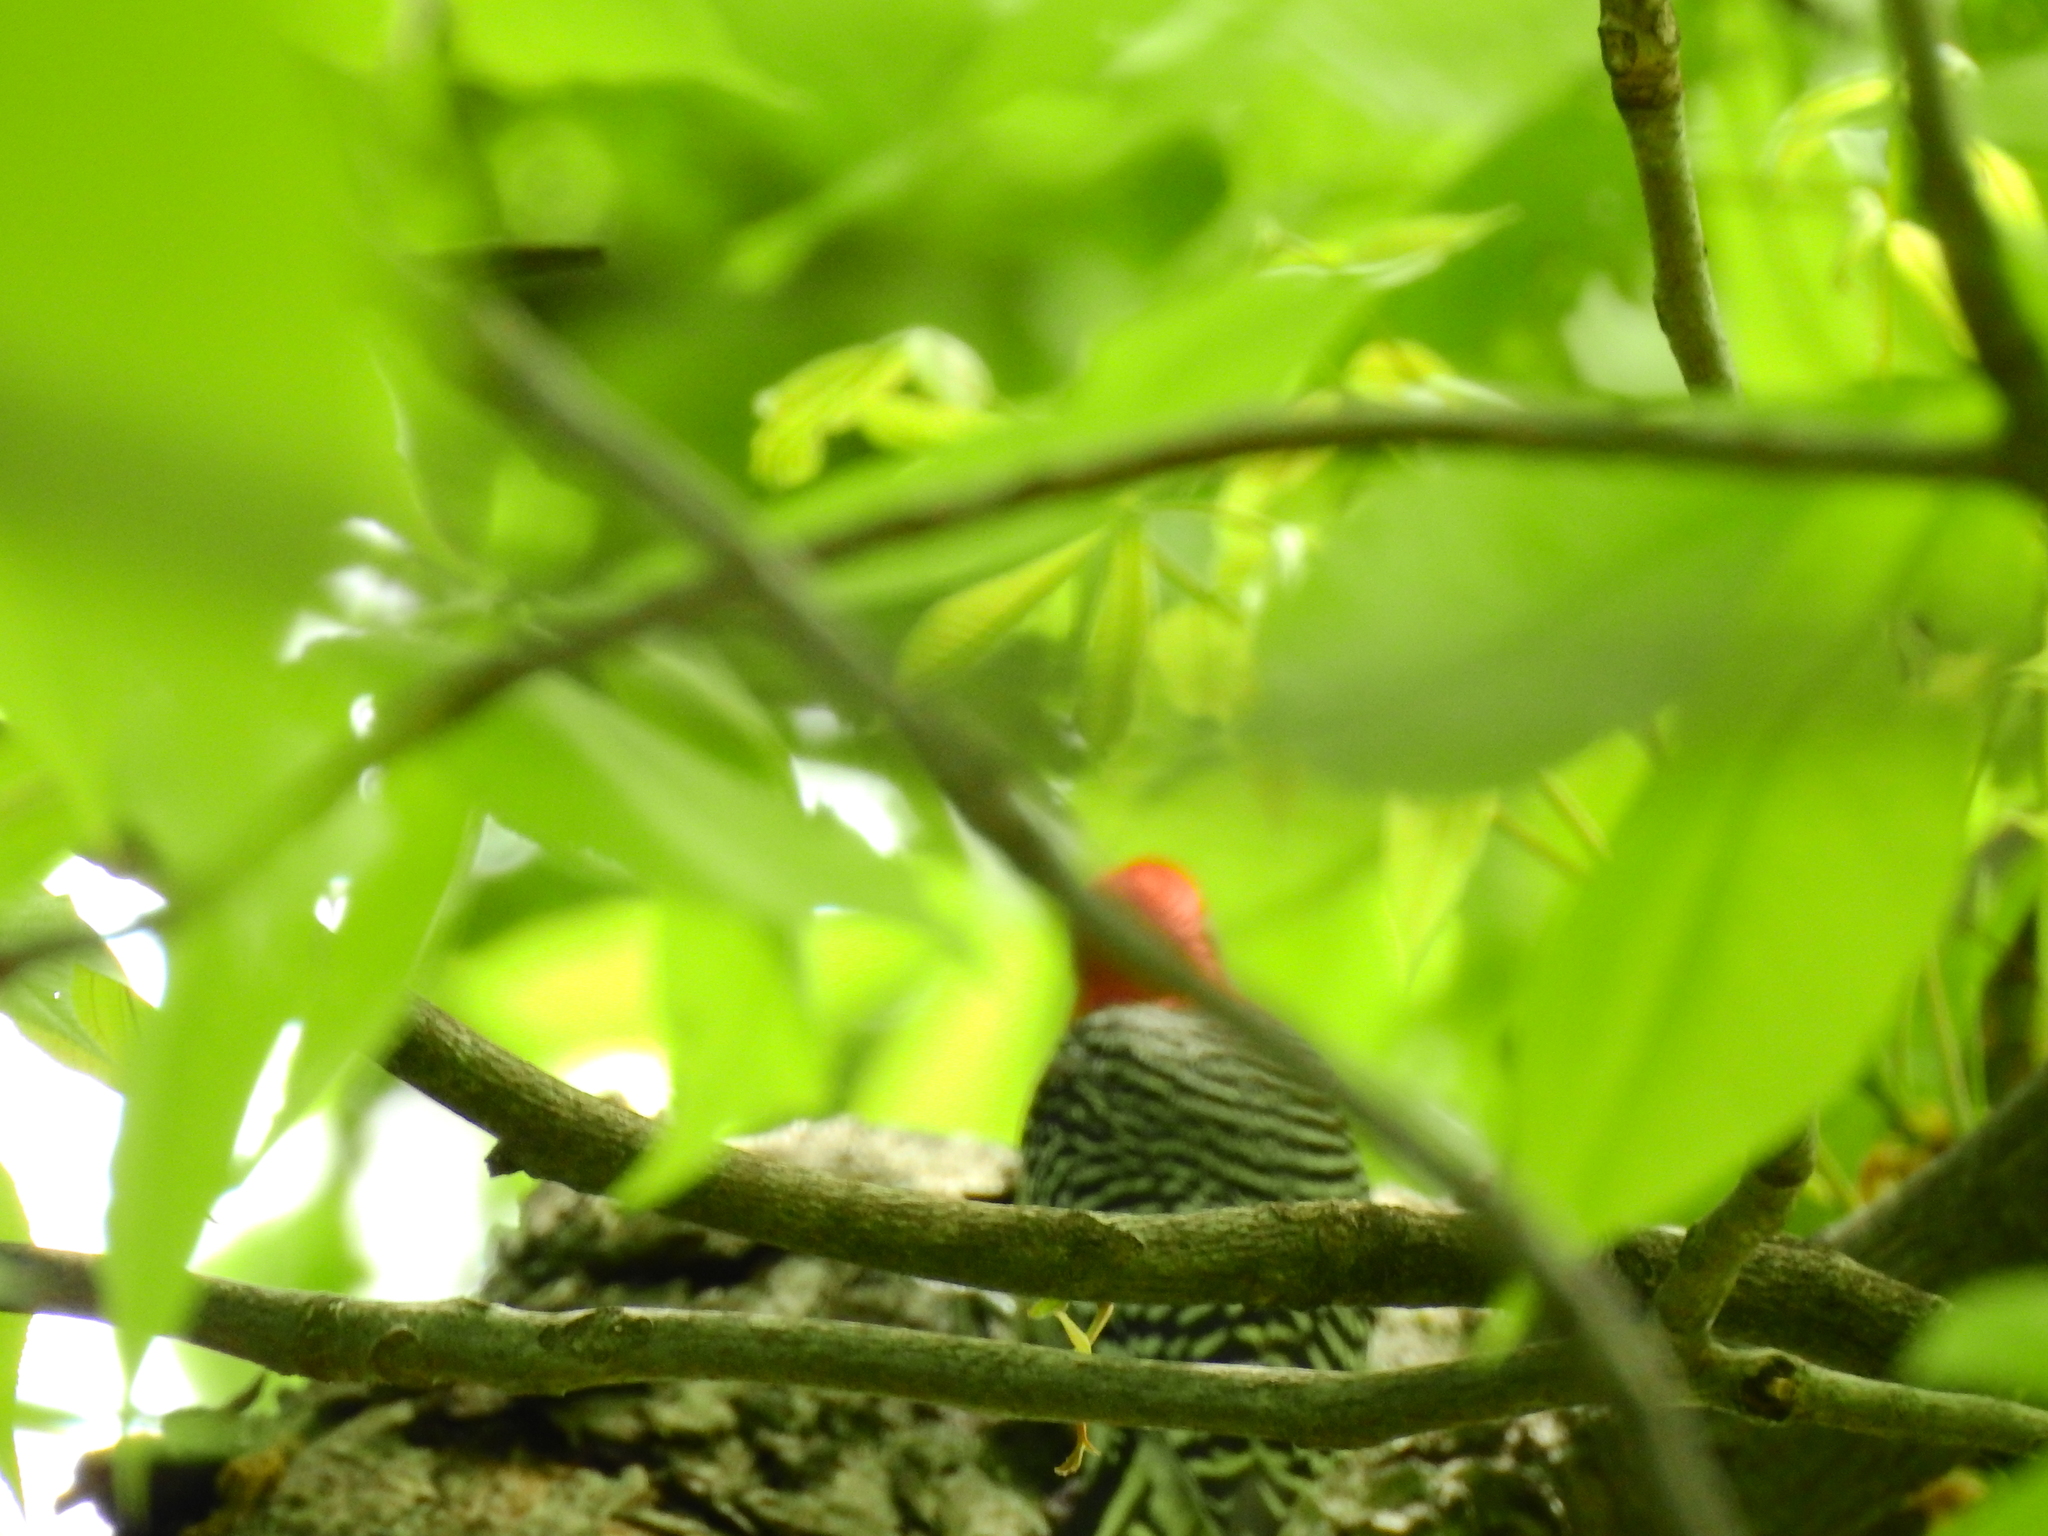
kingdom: Animalia
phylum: Chordata
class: Aves
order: Piciformes
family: Picidae
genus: Melanerpes
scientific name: Melanerpes carolinus
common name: Red-bellied woodpecker
